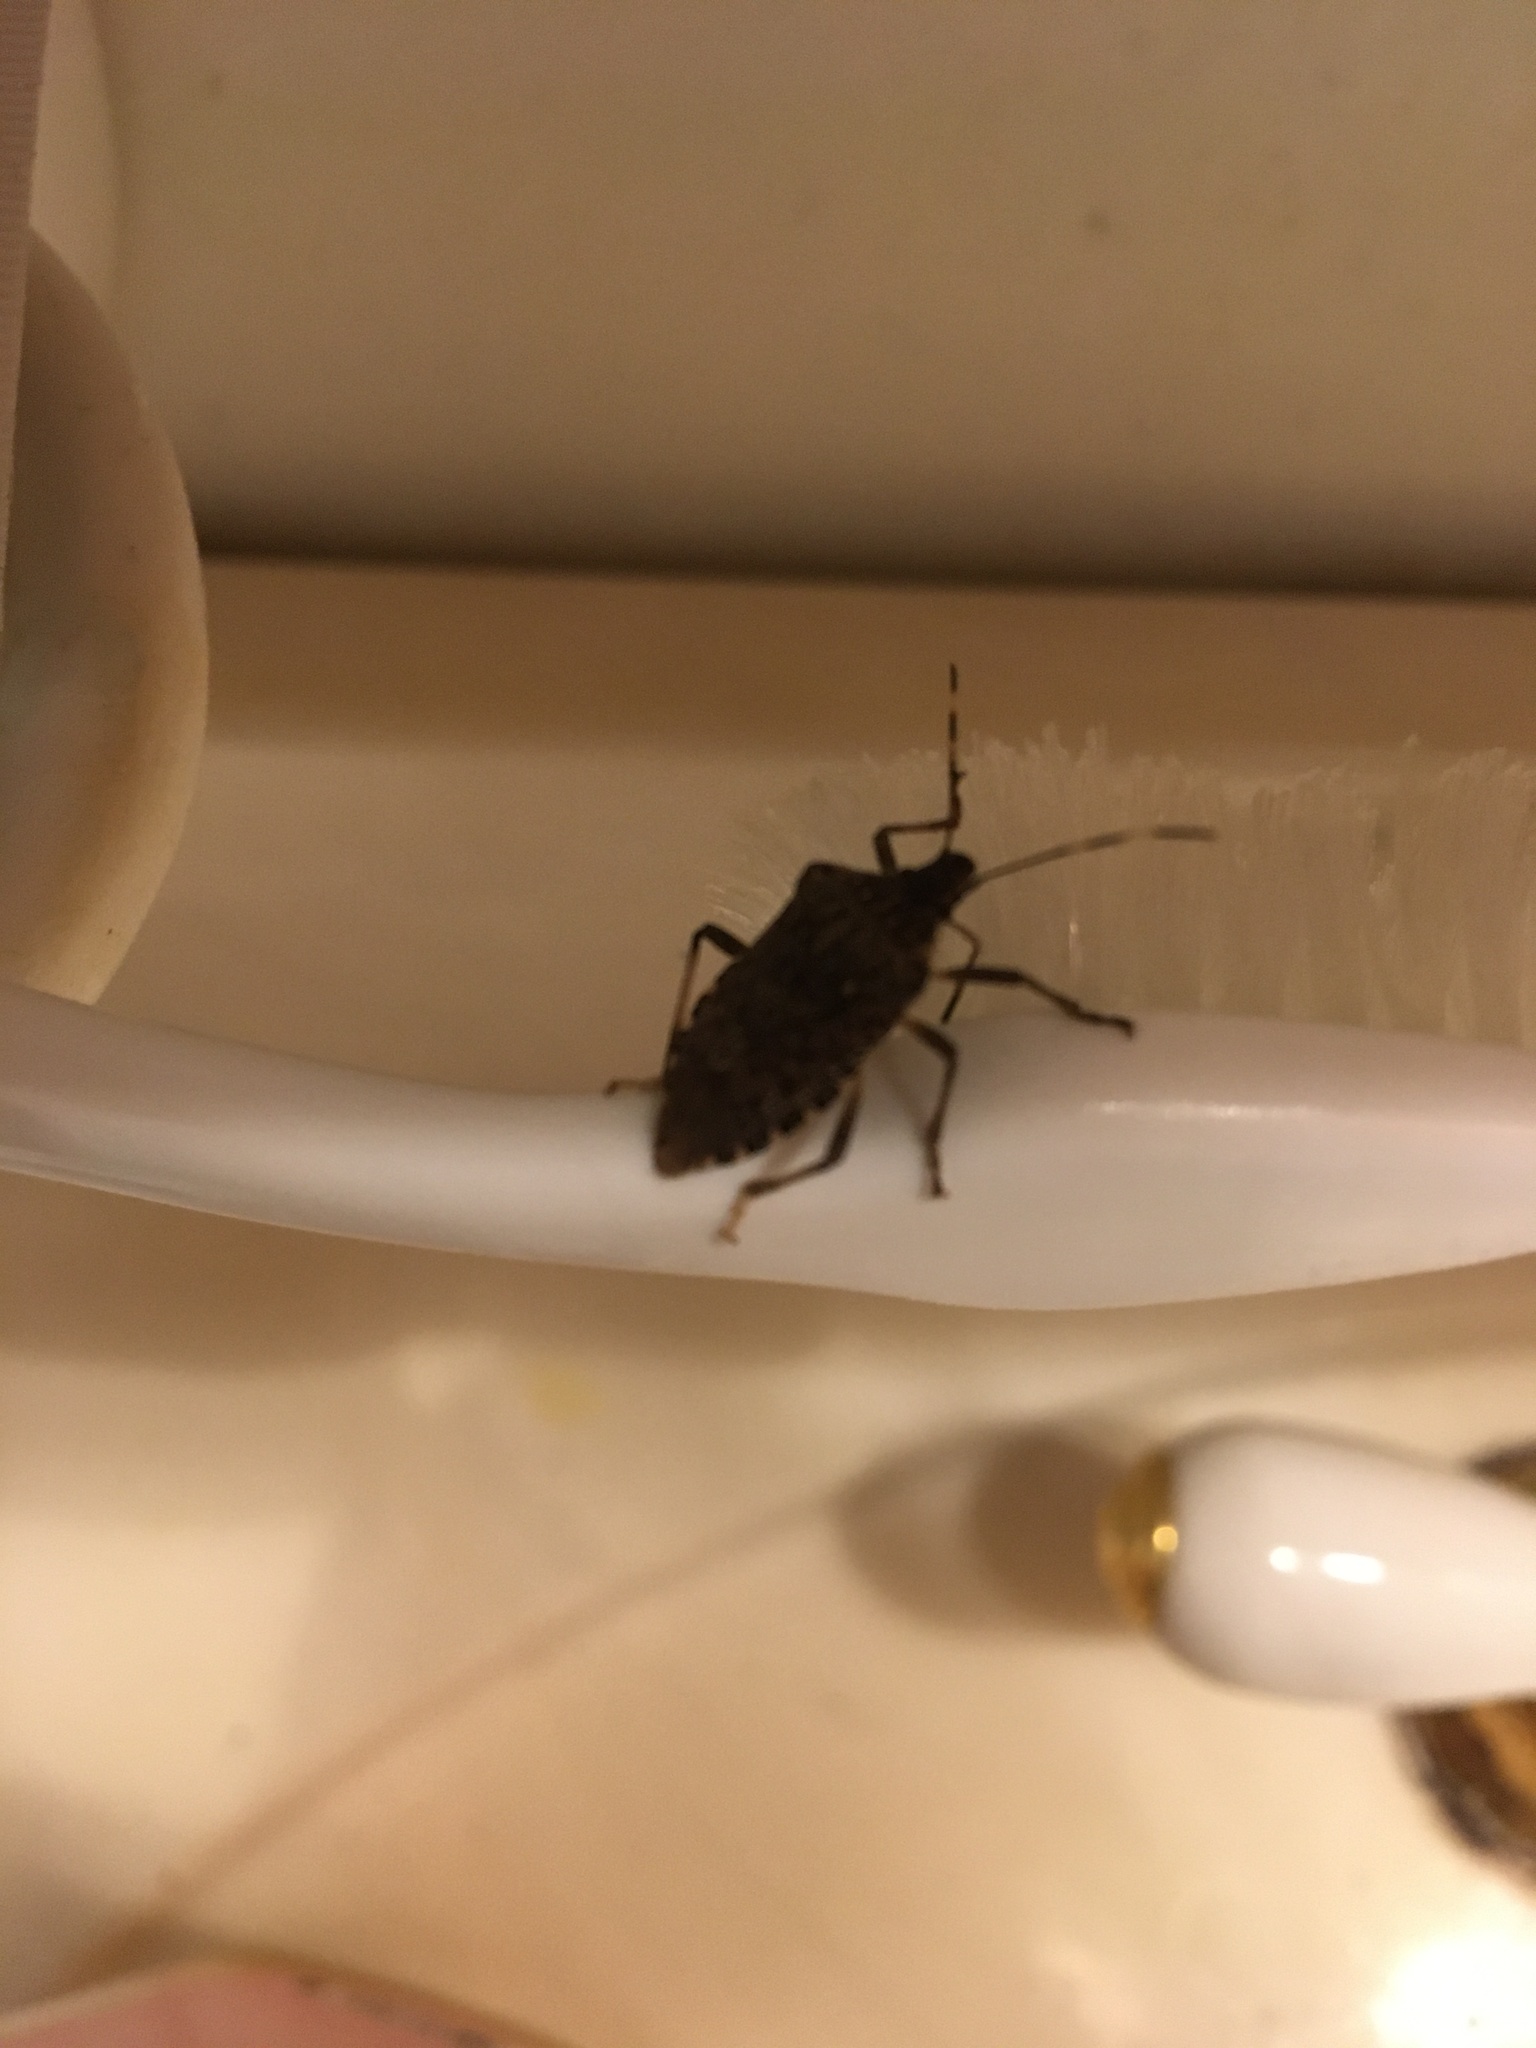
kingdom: Animalia
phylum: Arthropoda
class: Insecta
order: Hemiptera
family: Pentatomidae
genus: Halyomorpha
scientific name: Halyomorpha halys
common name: Brown marmorated stink bug
